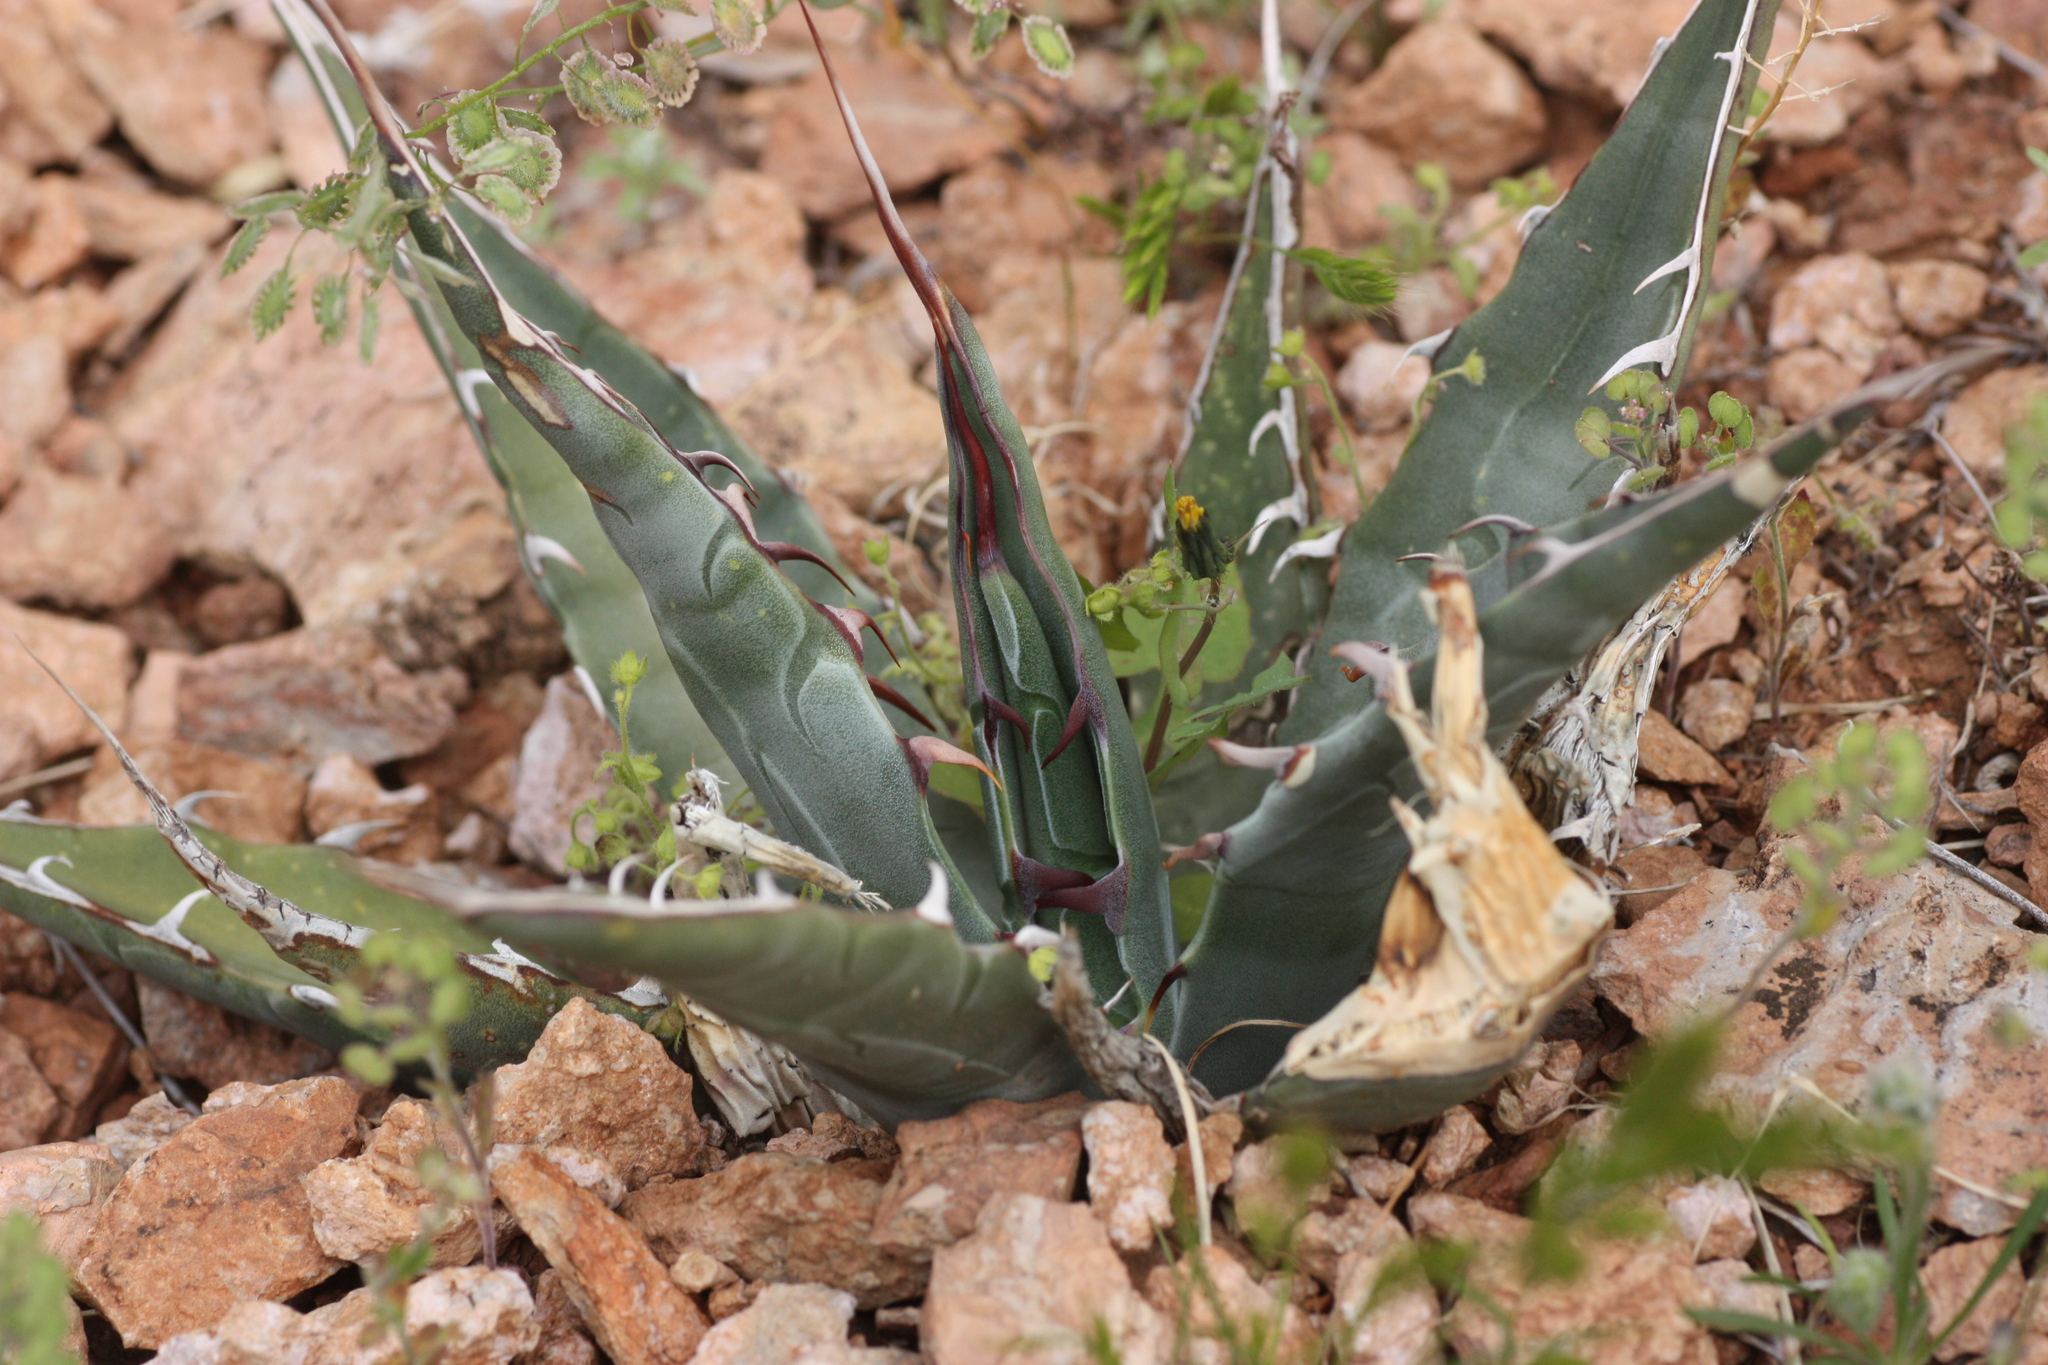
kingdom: Plantae
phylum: Tracheophyta
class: Liliopsida
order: Asparagales
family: Asparagaceae
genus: Agave
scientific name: Agave simplex
